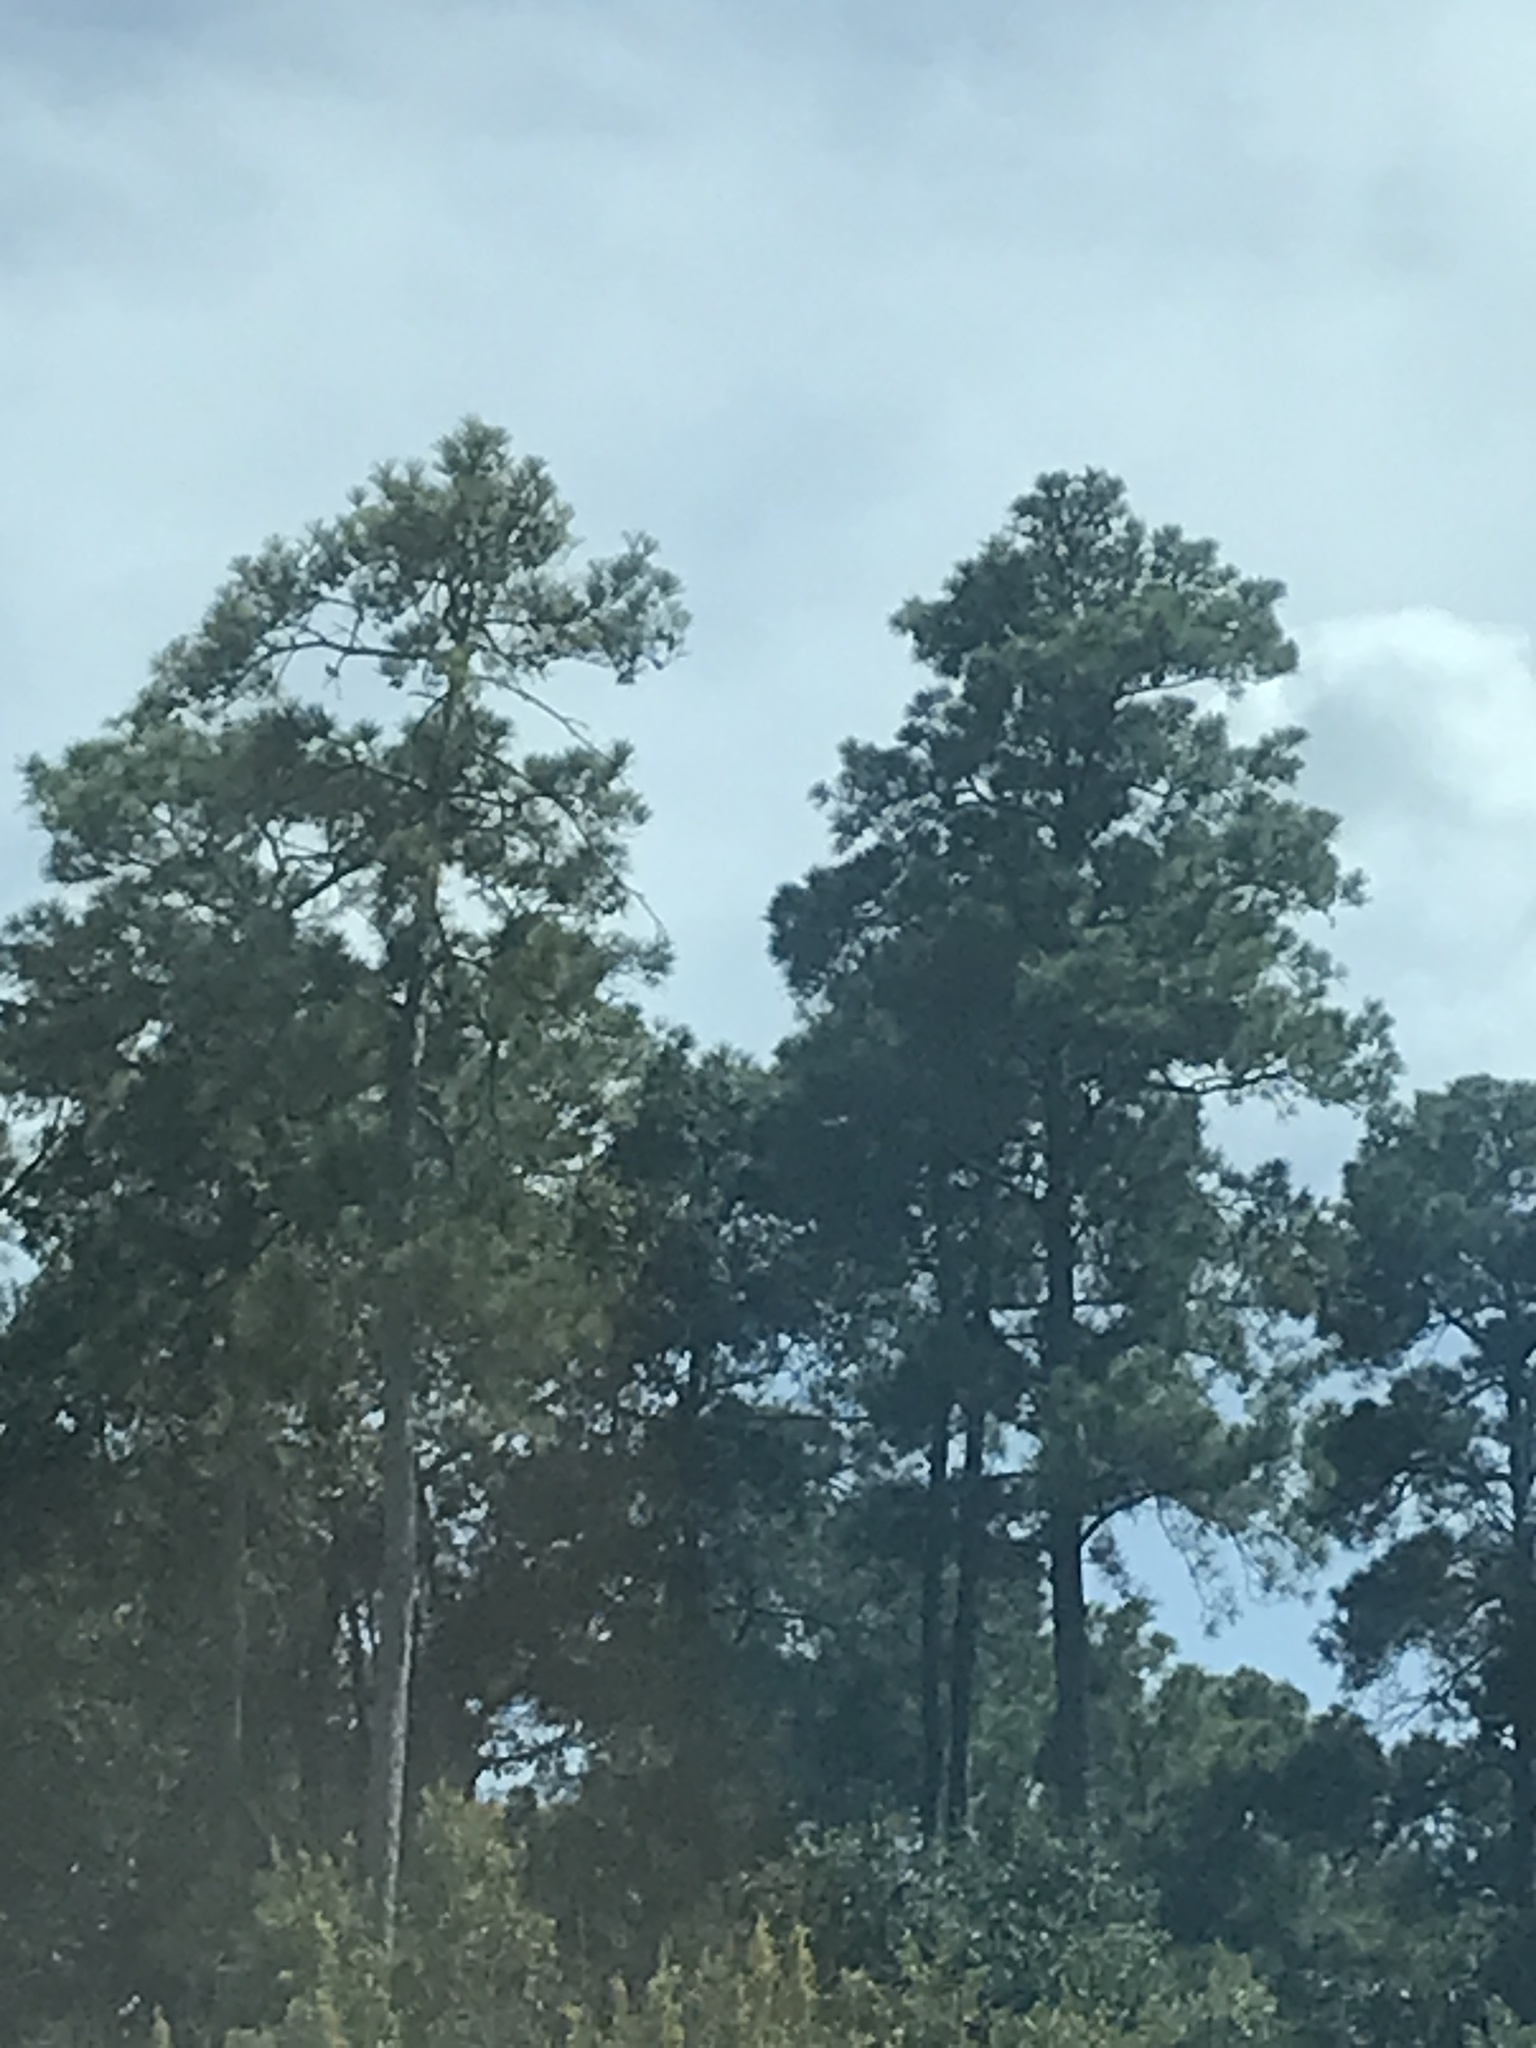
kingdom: Plantae
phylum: Tracheophyta
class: Pinopsida
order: Pinales
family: Pinaceae
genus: Pinus
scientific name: Pinus echinata
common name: Shortleaf pine
